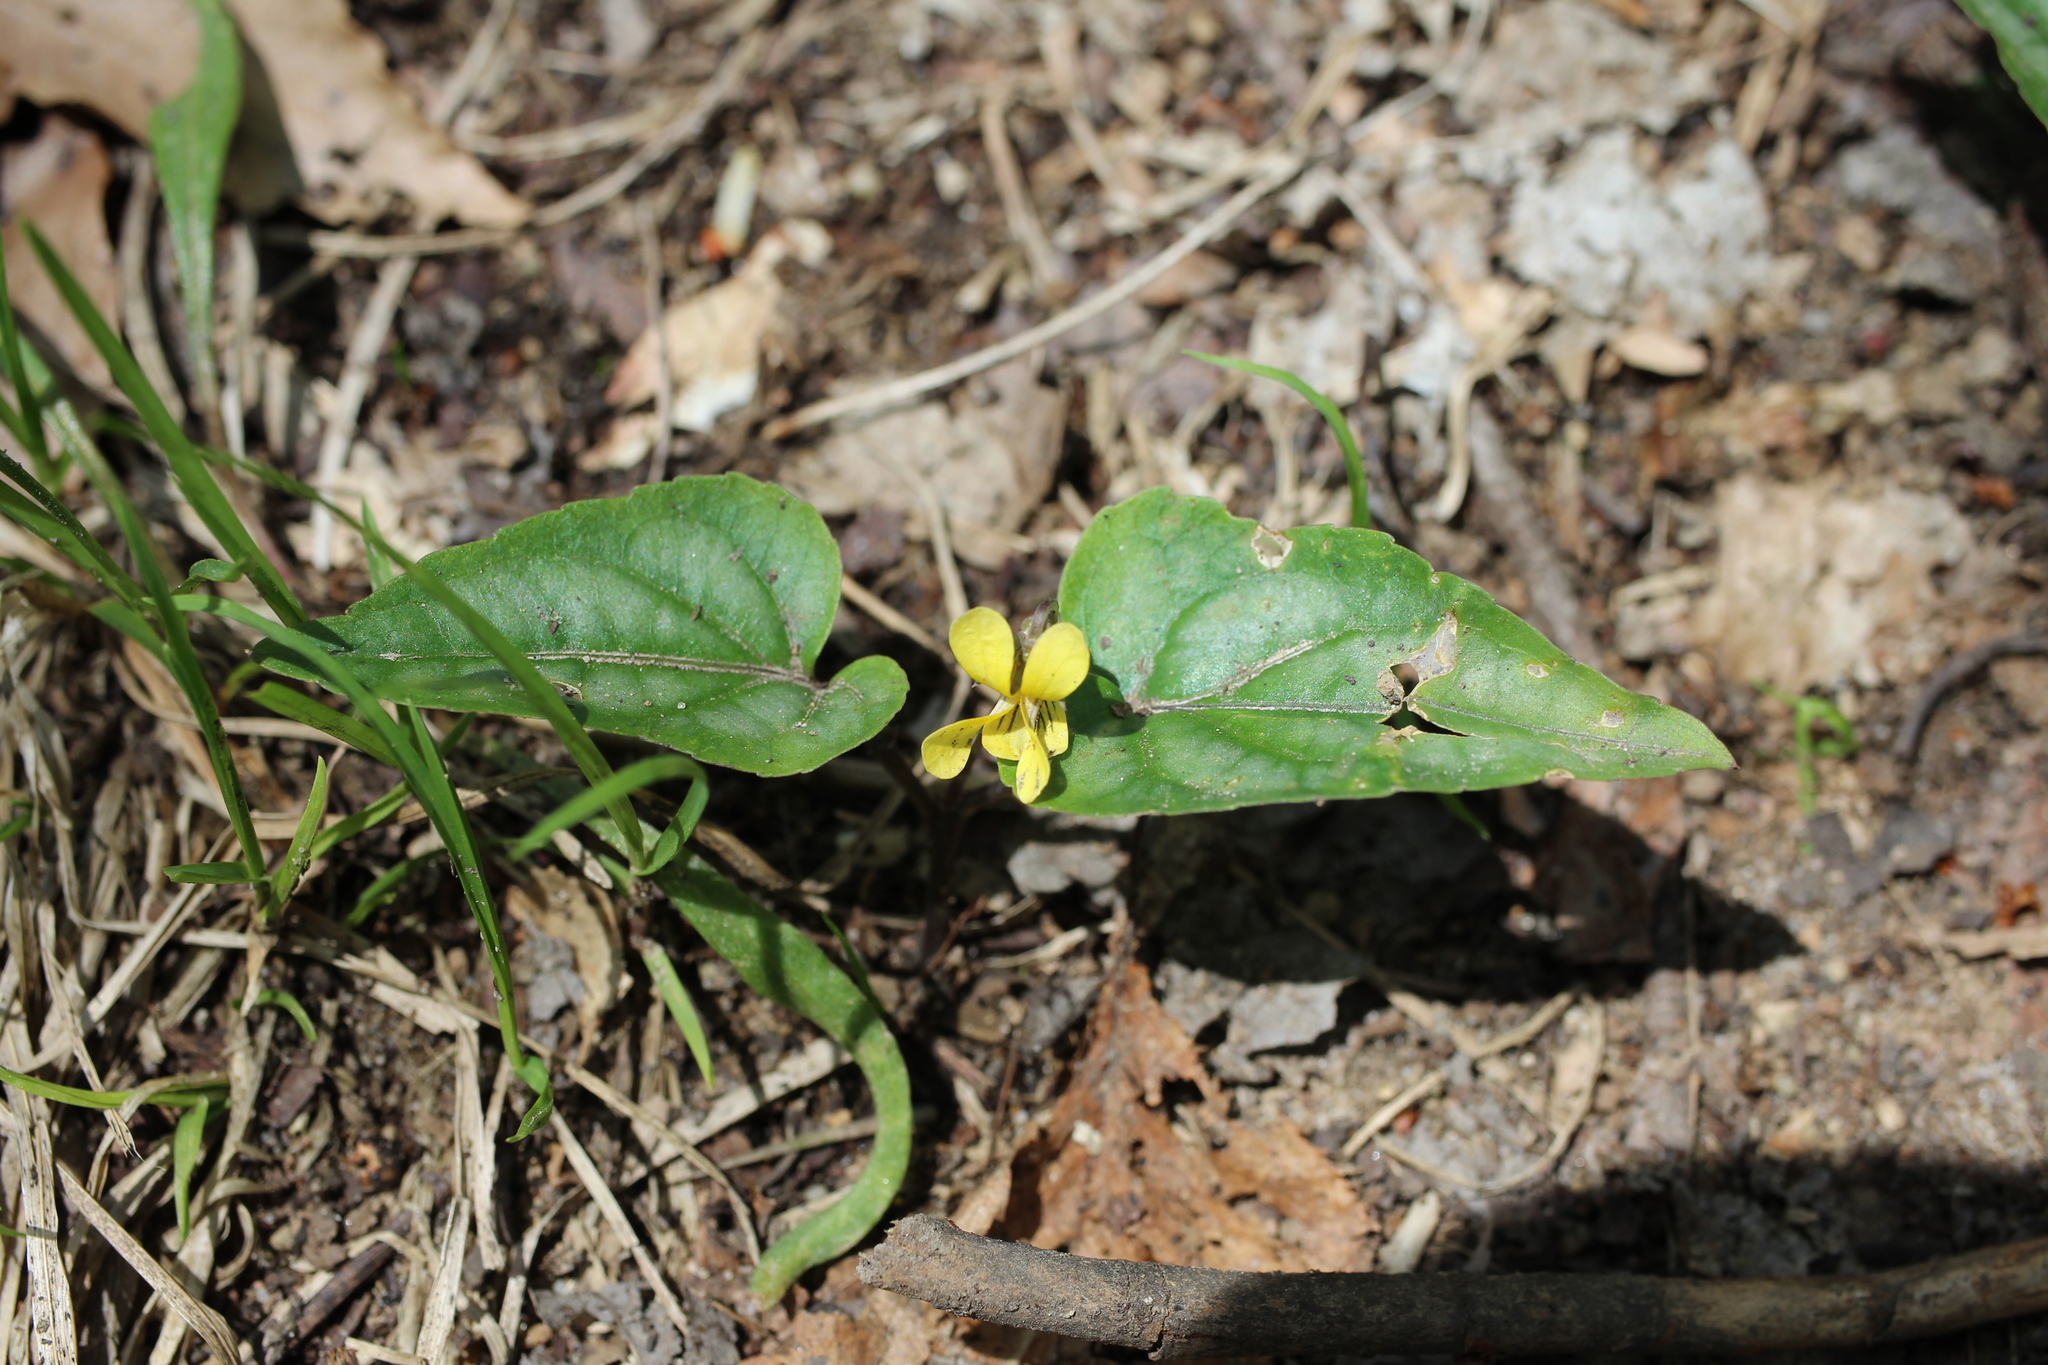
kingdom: Plantae
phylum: Tracheophyta
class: Magnoliopsida
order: Malpighiales
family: Violaceae
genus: Viola
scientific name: Viola hastata
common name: Spear-leaf violet
